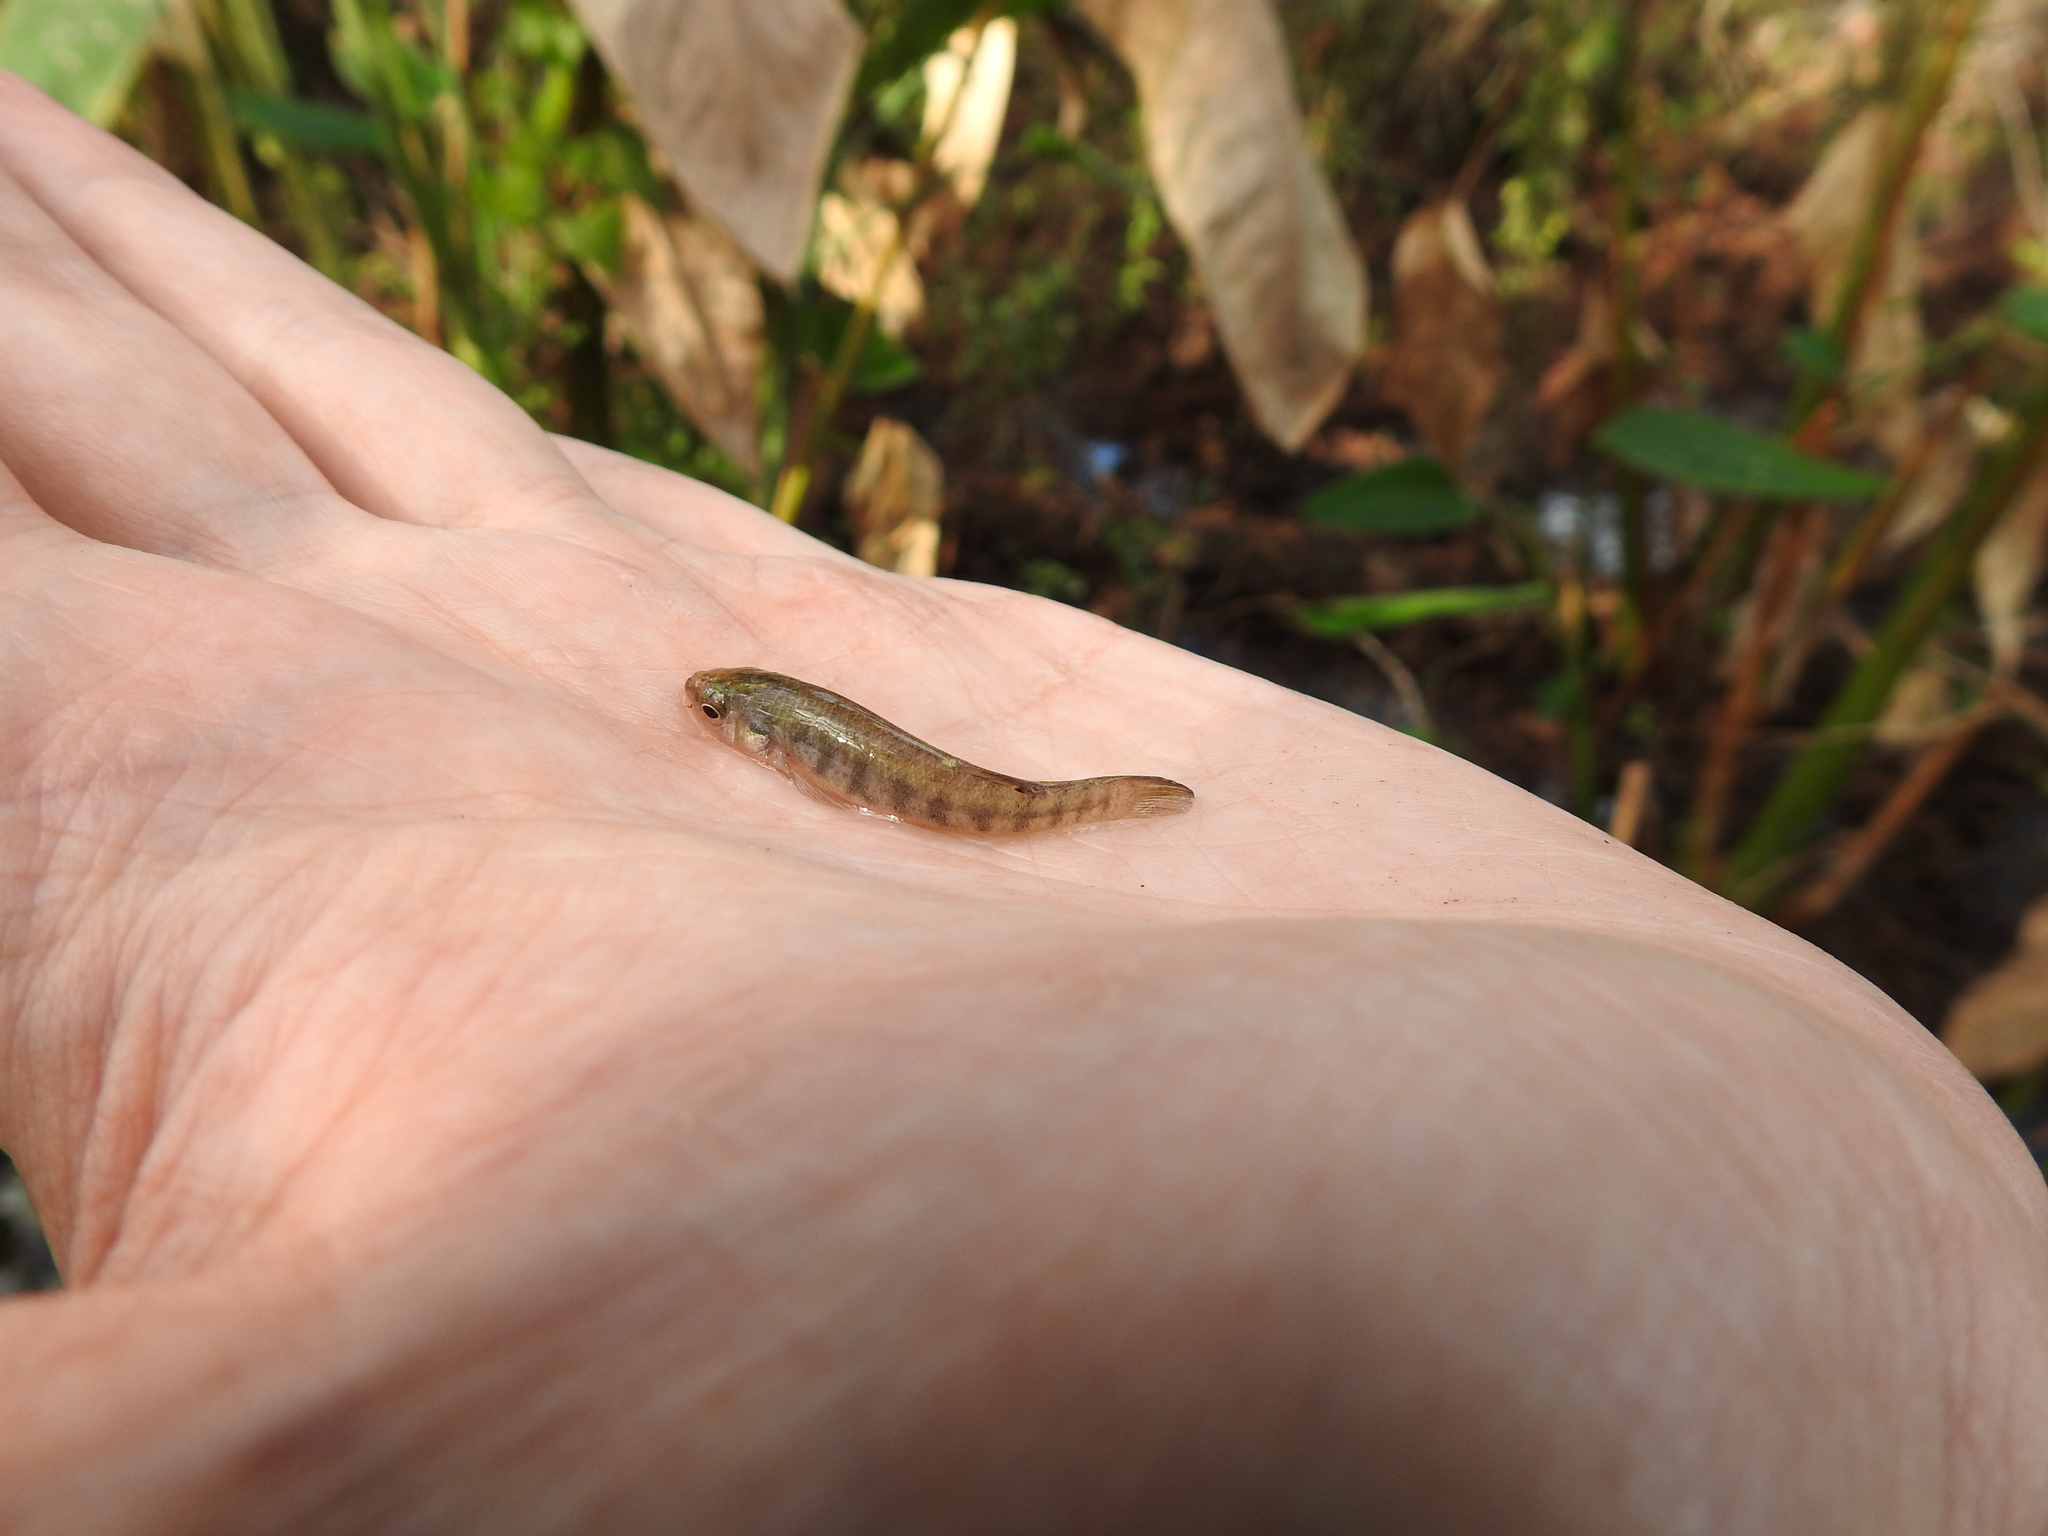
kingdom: Animalia
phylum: Chordata
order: Cyprinodontiformes
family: Fundulidae
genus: Fundulus
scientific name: Fundulus confluentus
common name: Killifish
